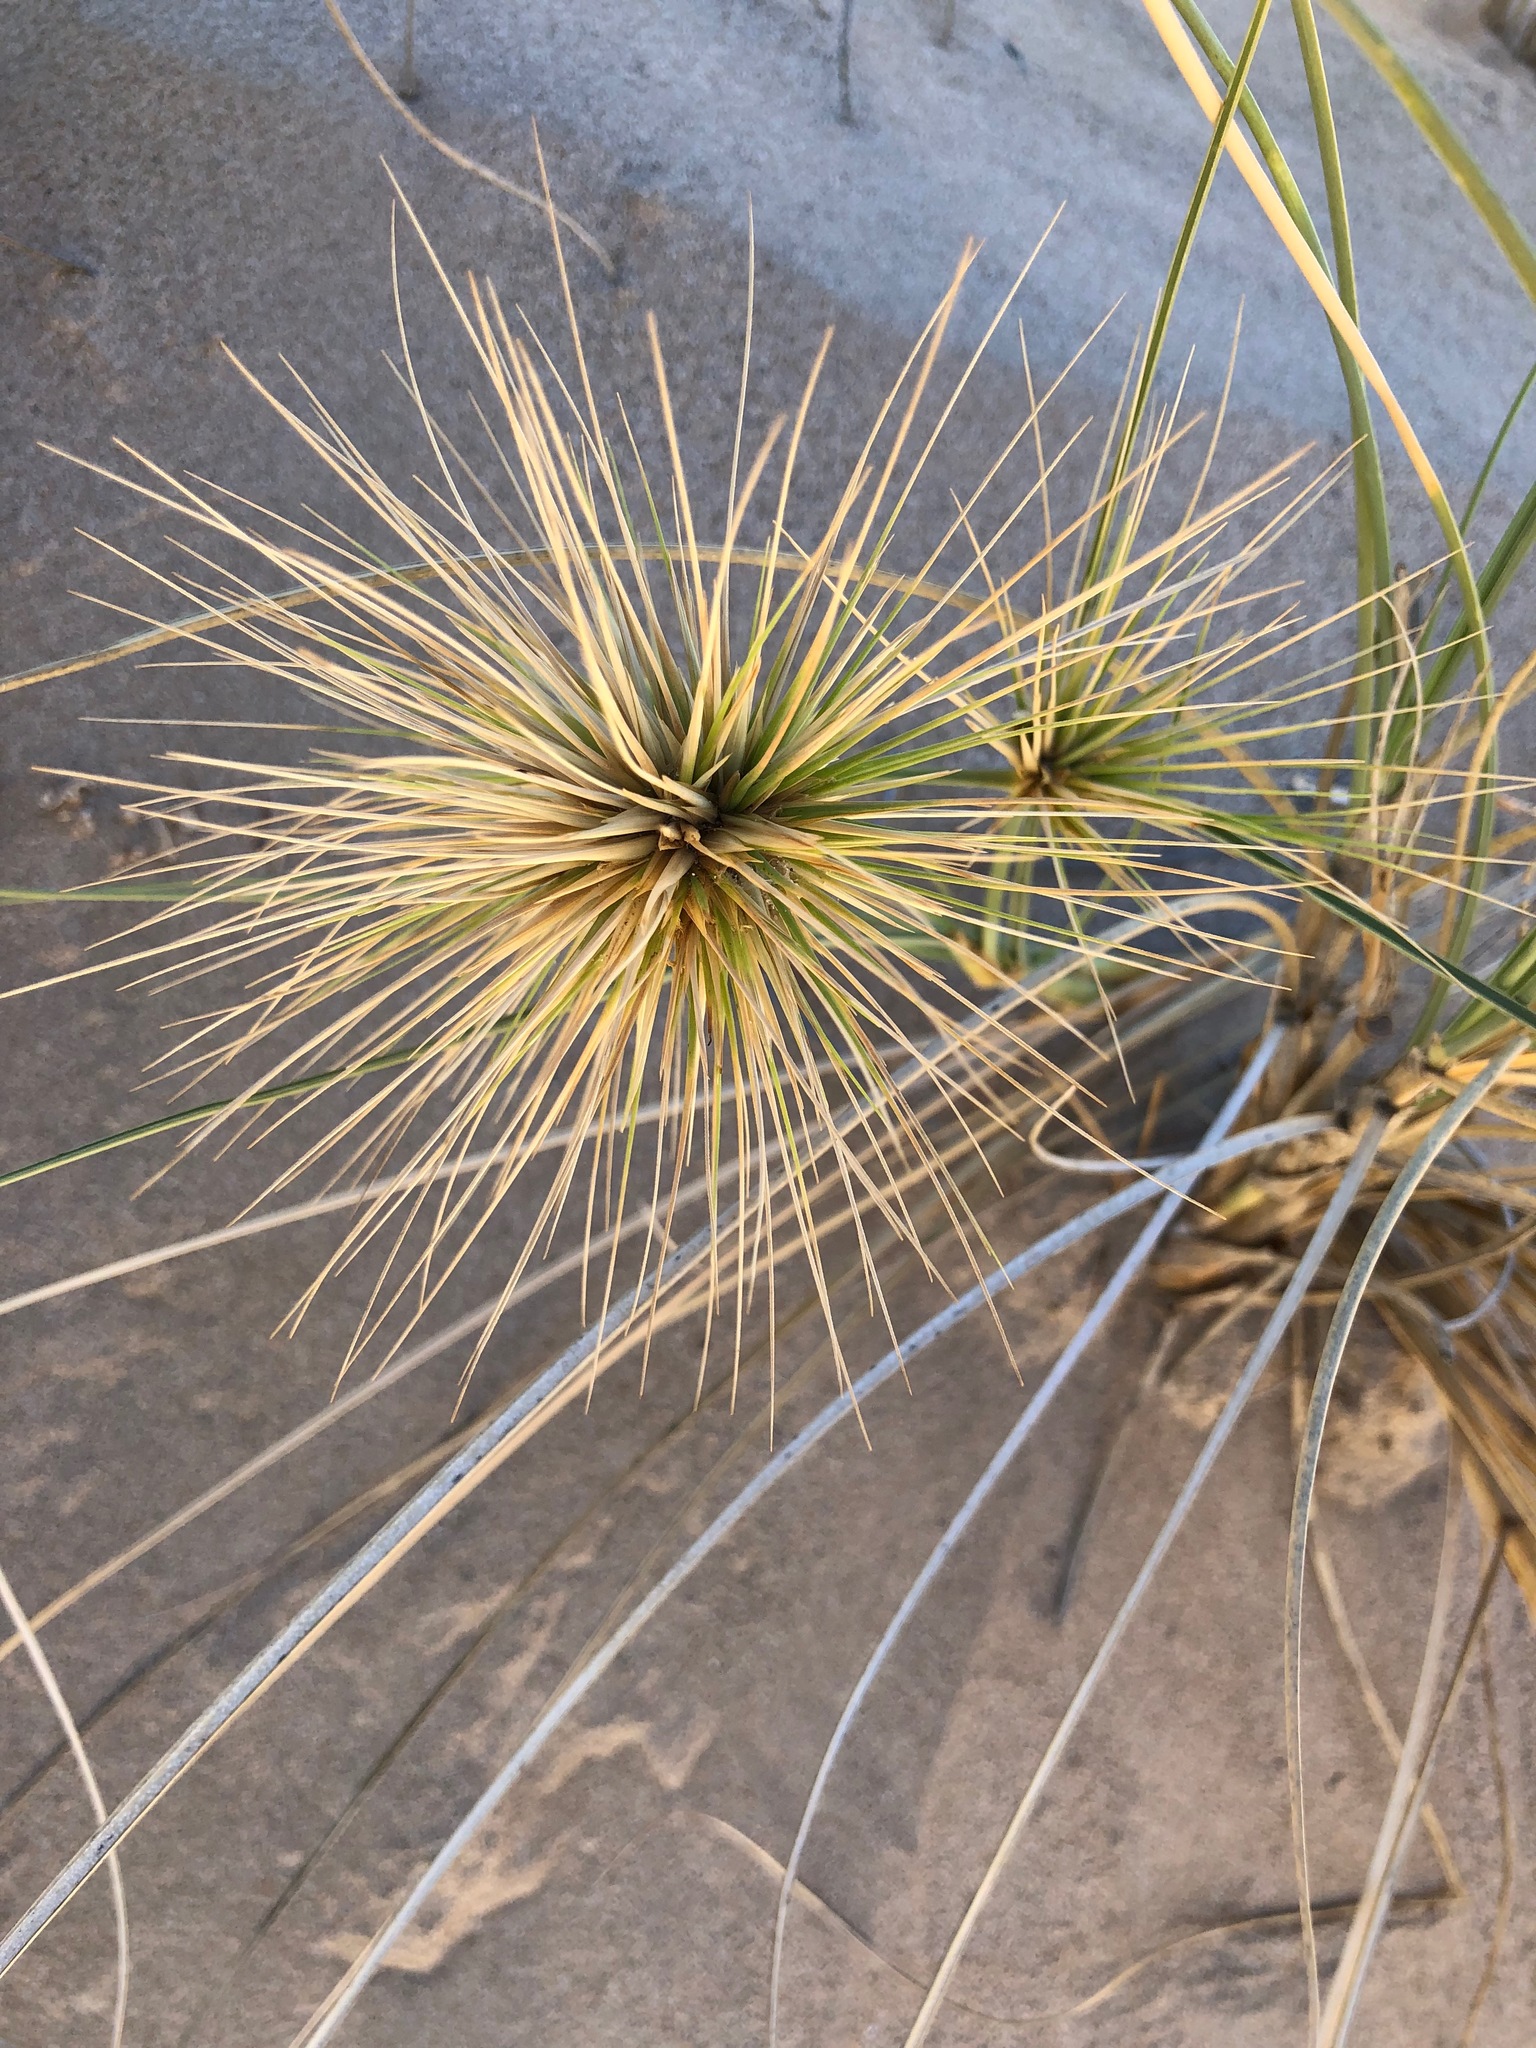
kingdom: Plantae
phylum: Tracheophyta
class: Liliopsida
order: Poales
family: Poaceae
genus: Spinifex
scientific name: Spinifex longifolius
